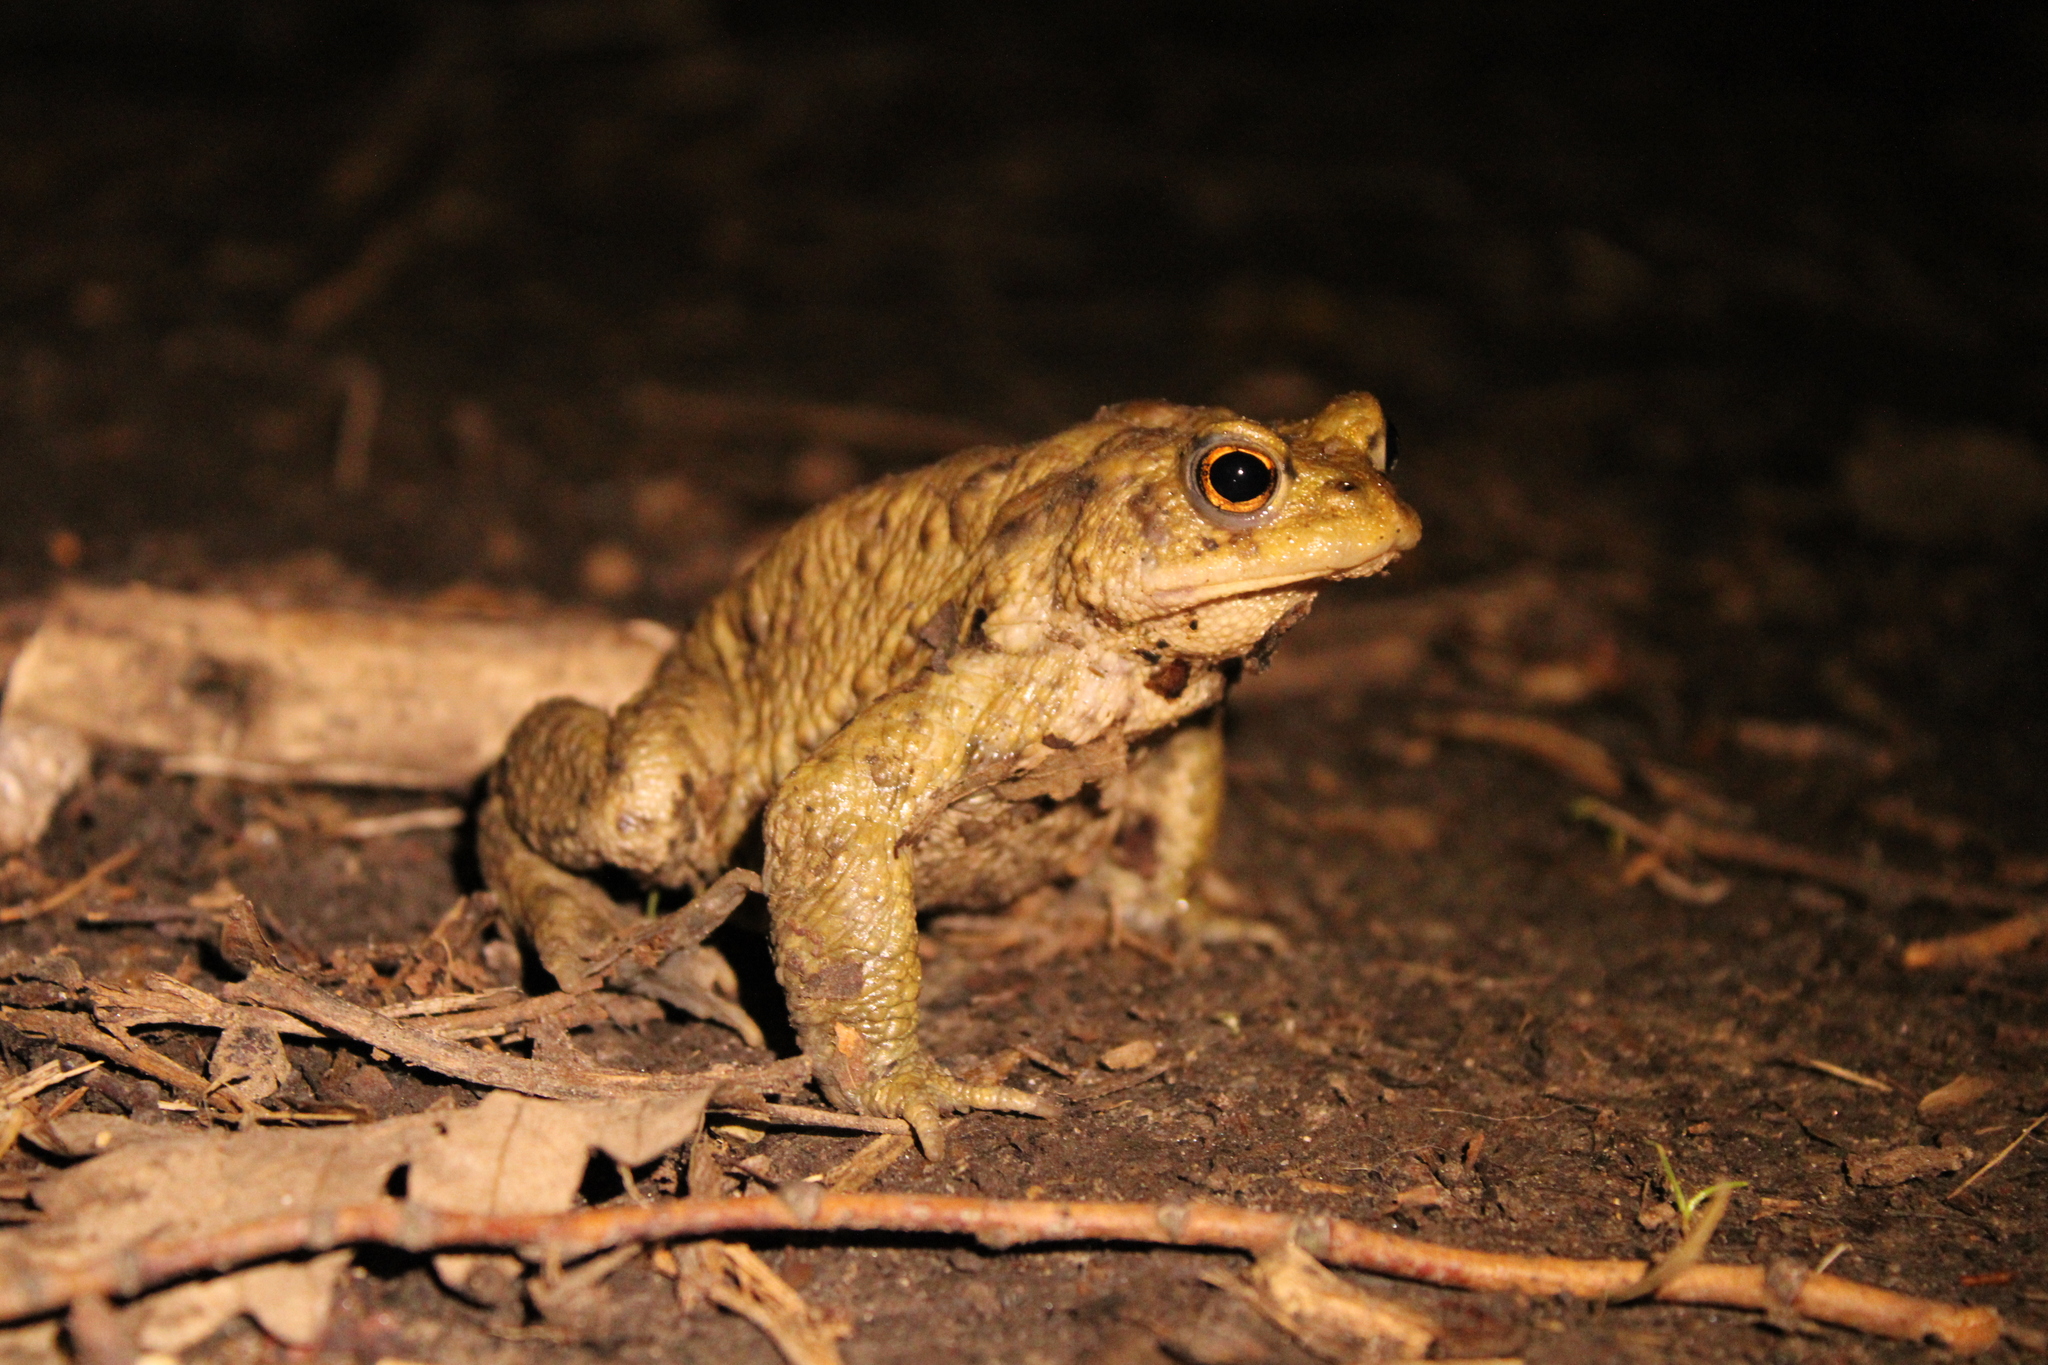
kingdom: Animalia
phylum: Chordata
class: Amphibia
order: Anura
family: Bufonidae
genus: Bufo
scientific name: Bufo bufo
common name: Common toad
